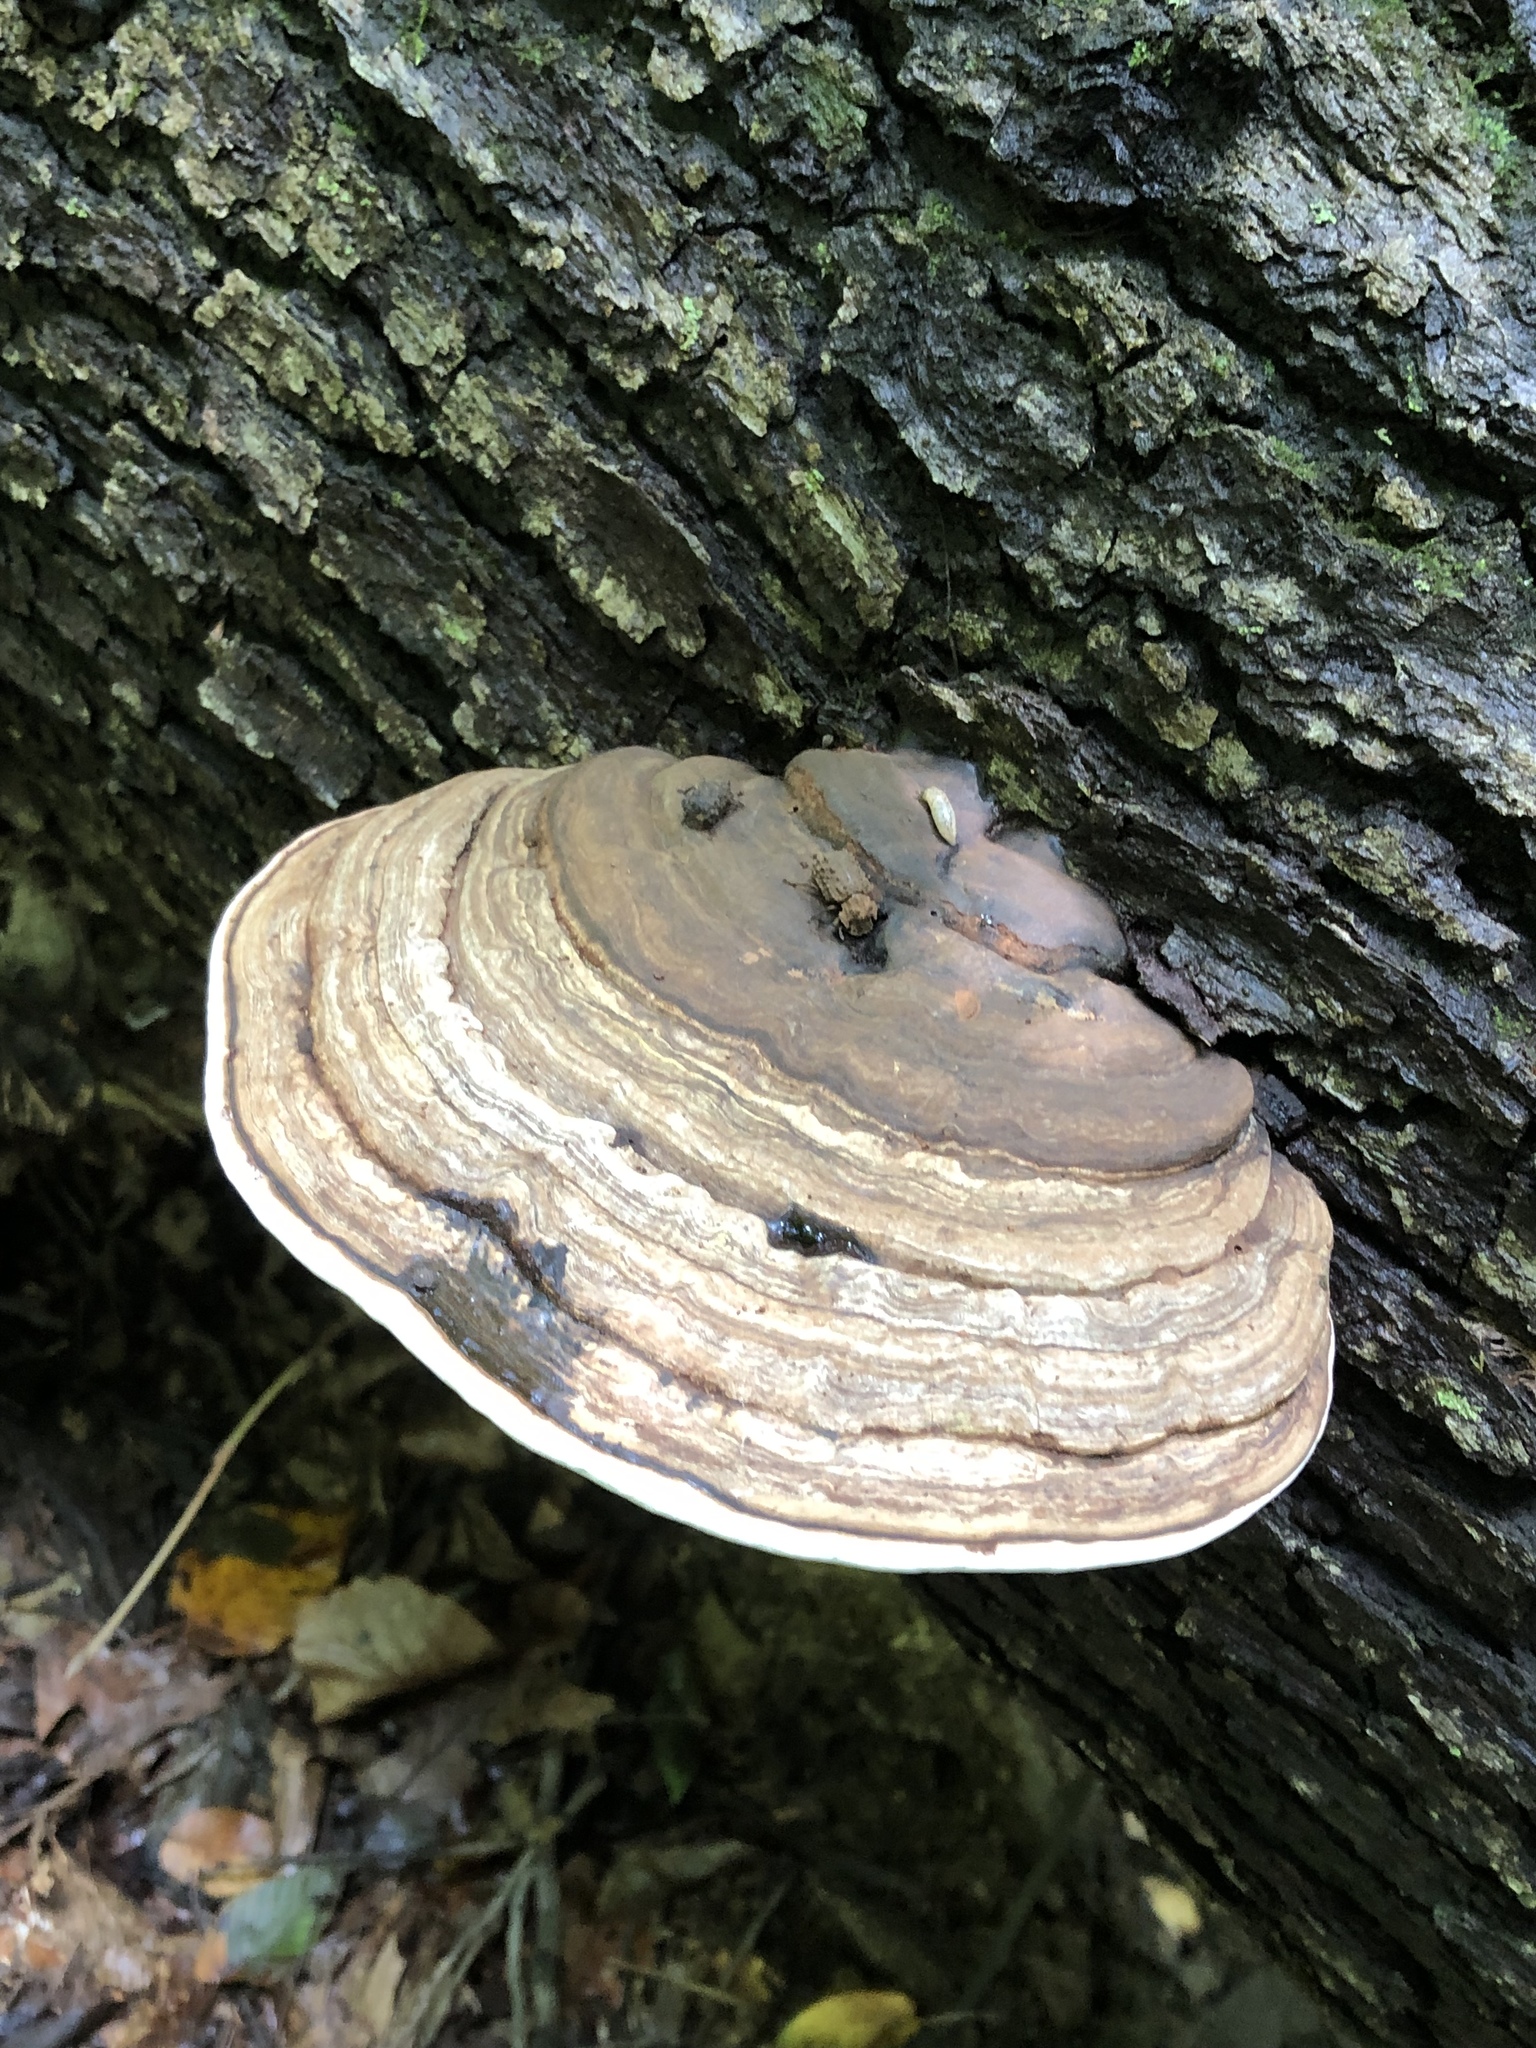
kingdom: Fungi
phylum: Basidiomycota
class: Agaricomycetes
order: Polyporales
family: Polyporaceae
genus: Ganoderma
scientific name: Ganoderma applanatum
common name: Artist's bracket
